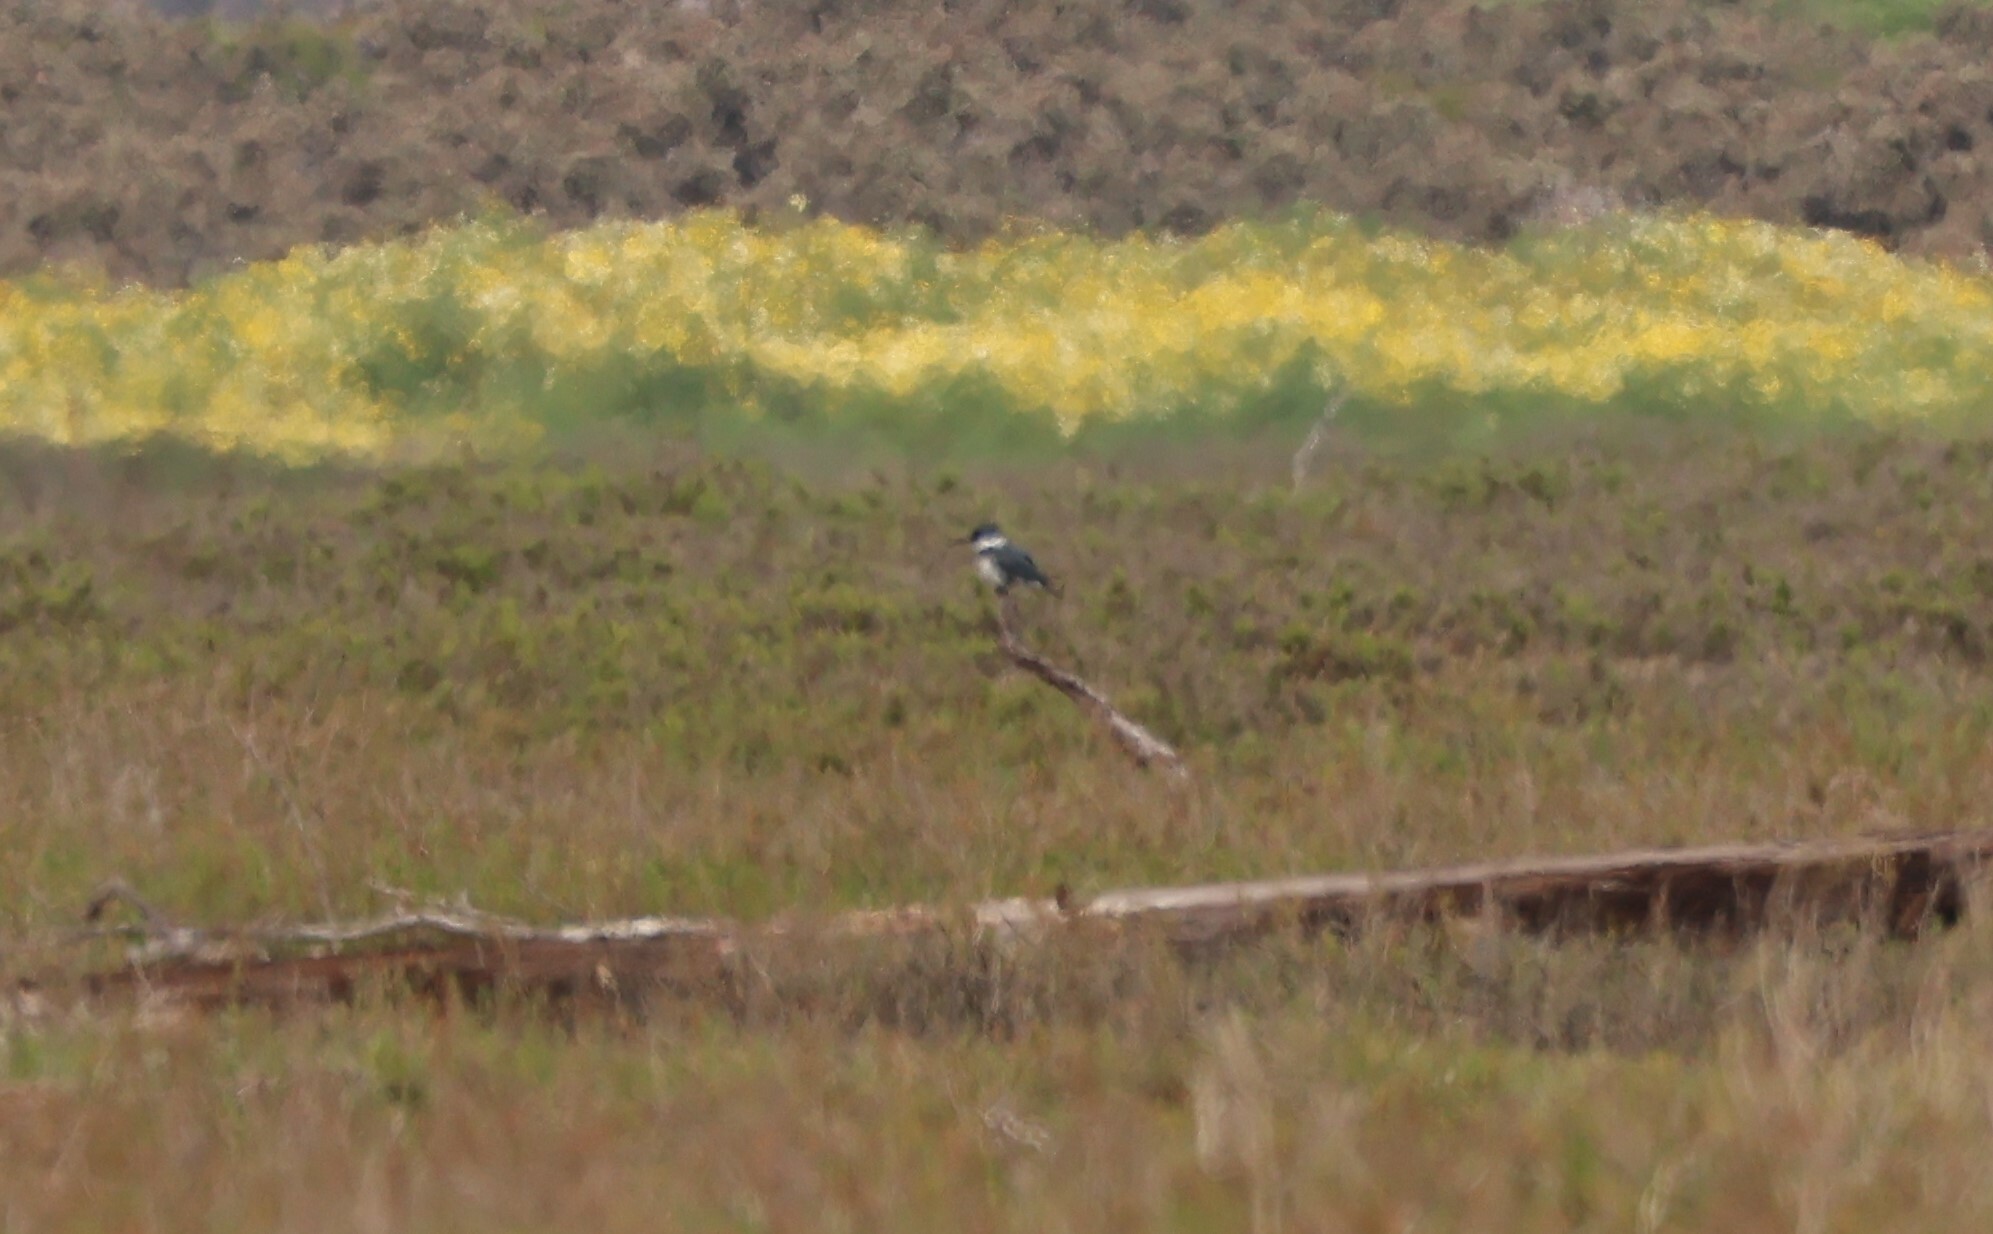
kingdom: Animalia
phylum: Chordata
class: Aves
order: Coraciiformes
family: Alcedinidae
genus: Megaceryle
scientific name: Megaceryle alcyon
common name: Belted kingfisher
